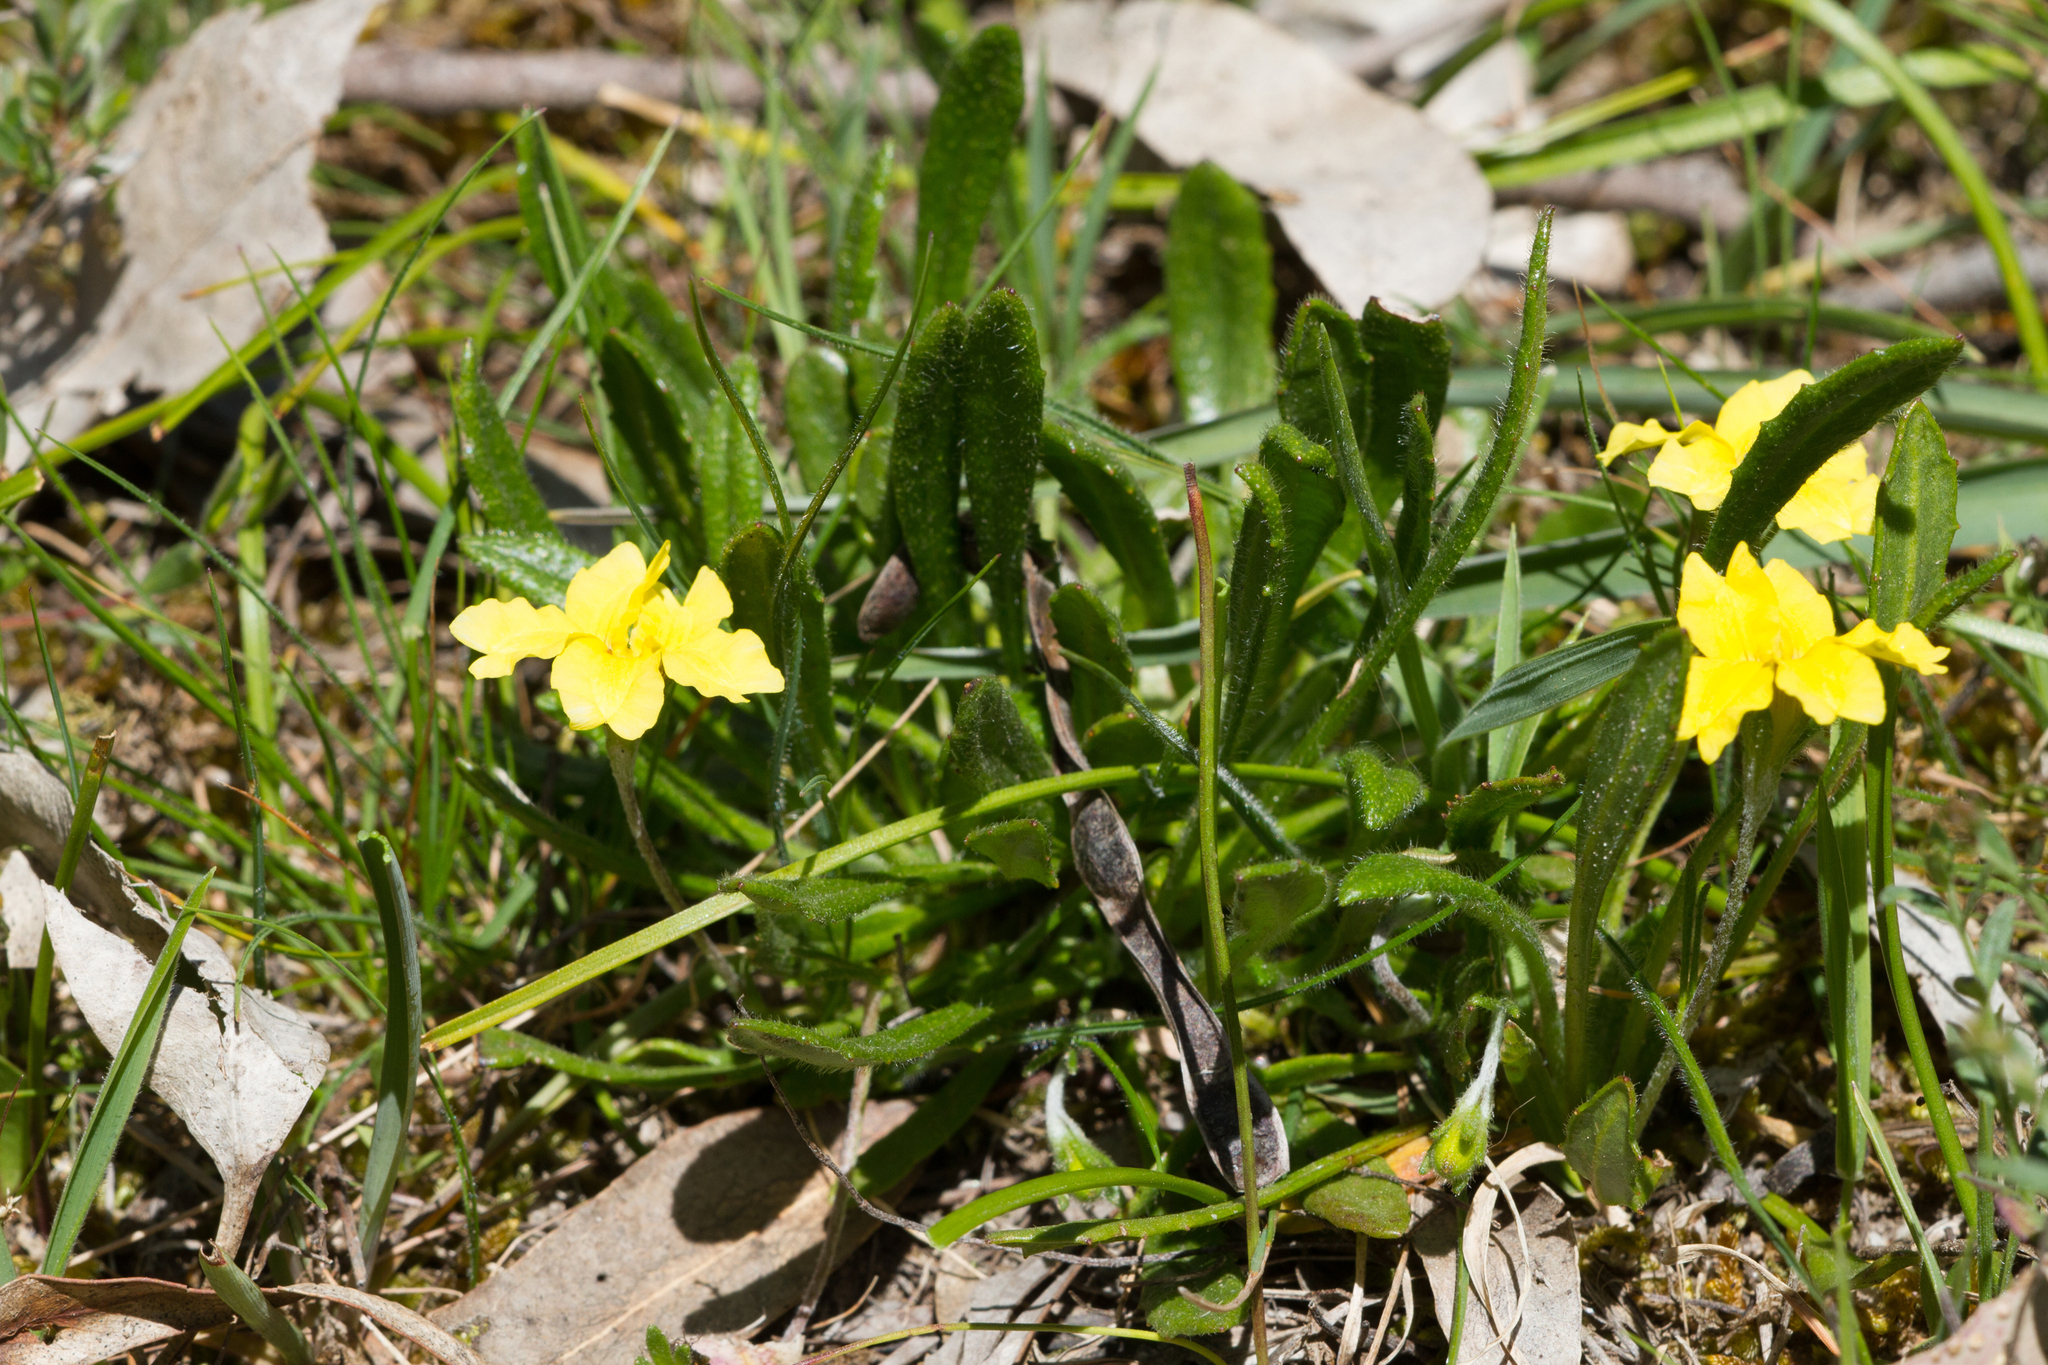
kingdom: Plantae
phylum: Tracheophyta
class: Magnoliopsida
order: Asterales
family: Goodeniaceae
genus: Goodenia
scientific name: Goodenia geniculata
